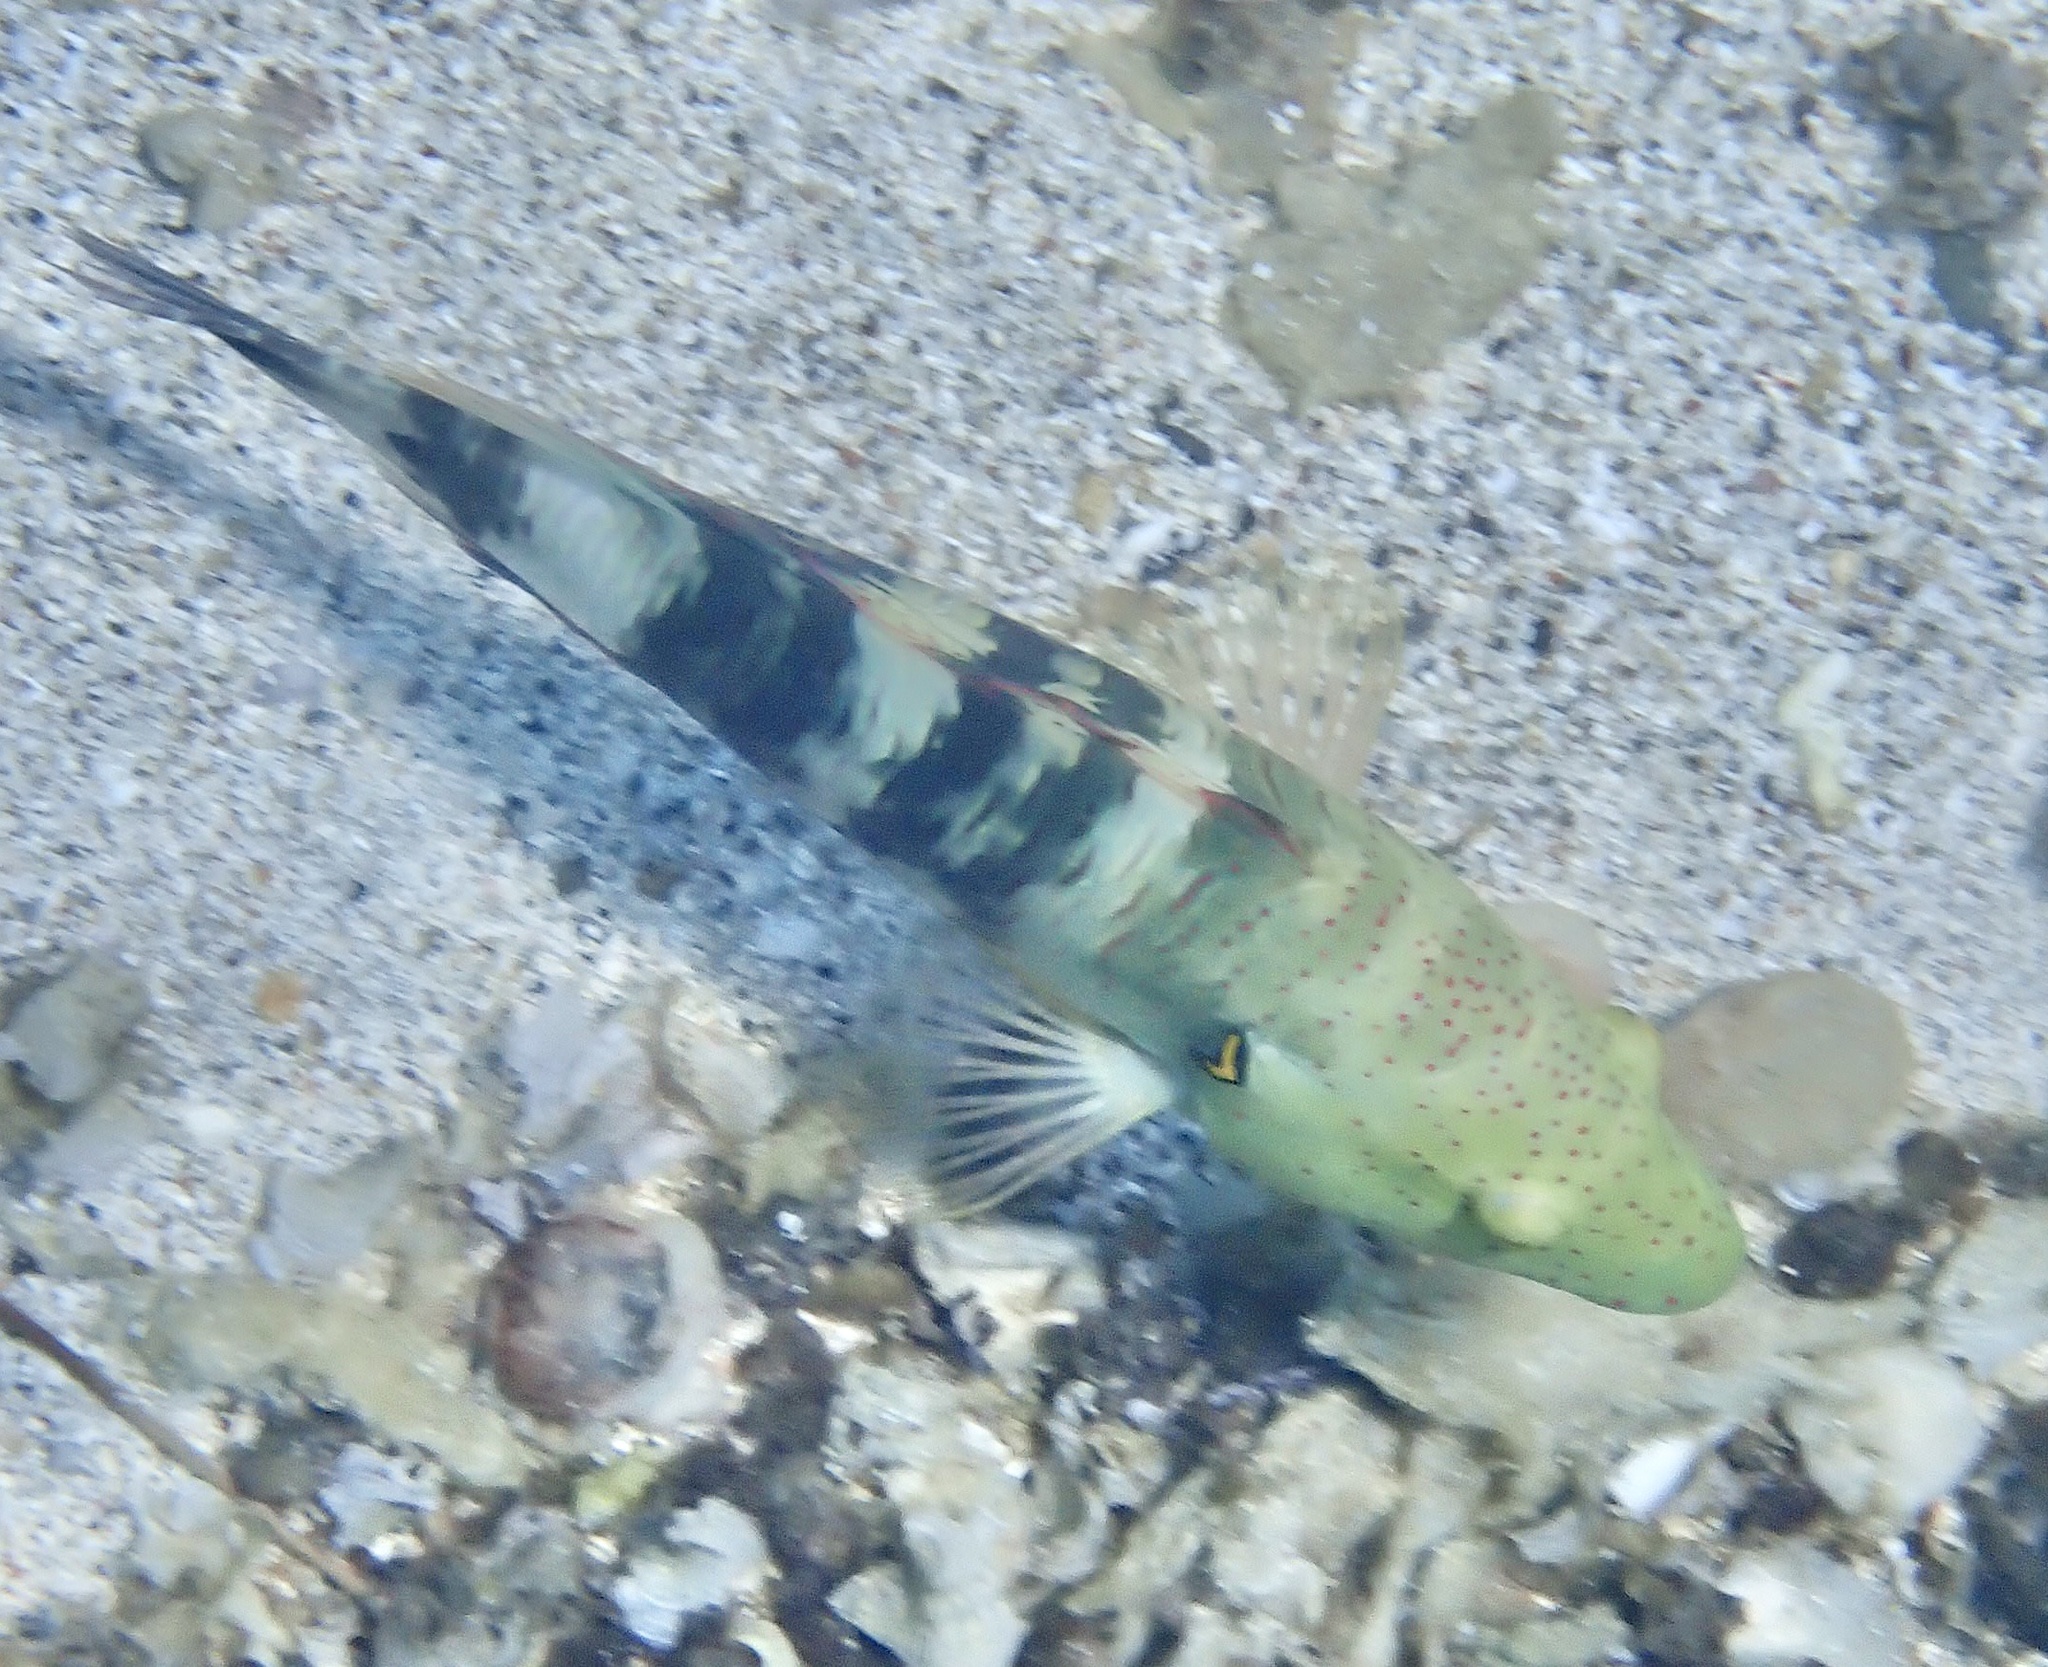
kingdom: Animalia
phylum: Chordata
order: Perciformes
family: Labridae
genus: Cheilinus
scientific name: Cheilinus lunulatus
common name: Broomtail wrasse
